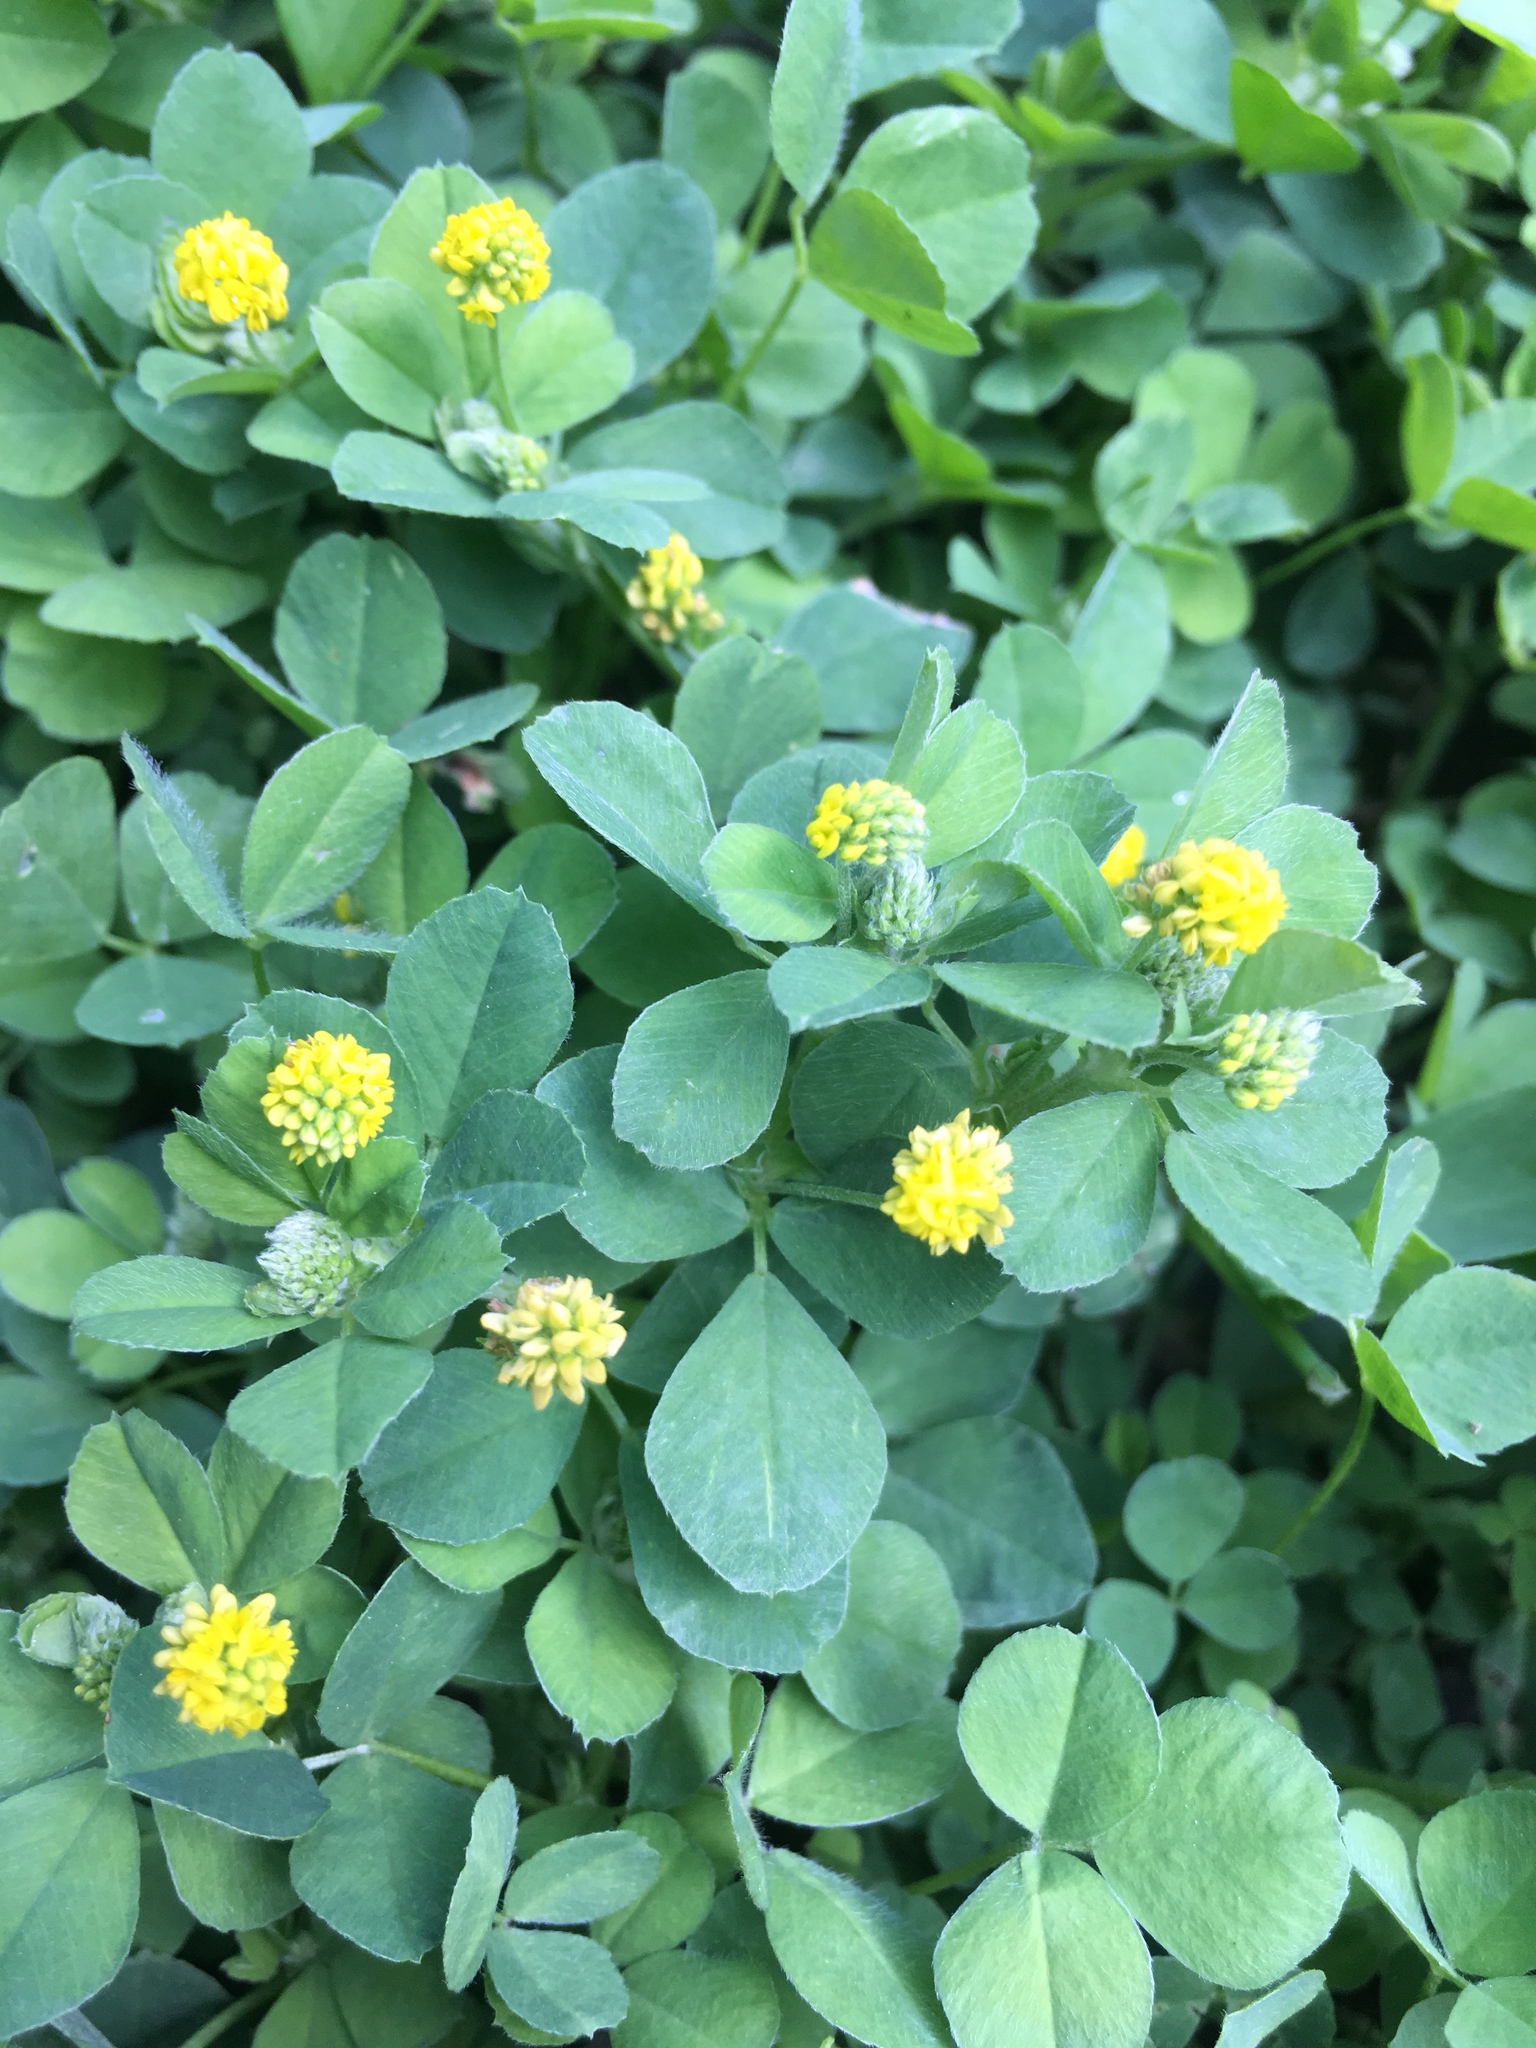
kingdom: Plantae
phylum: Tracheophyta
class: Magnoliopsida
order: Fabales
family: Fabaceae
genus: Medicago
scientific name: Medicago lupulina
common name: Black medick
